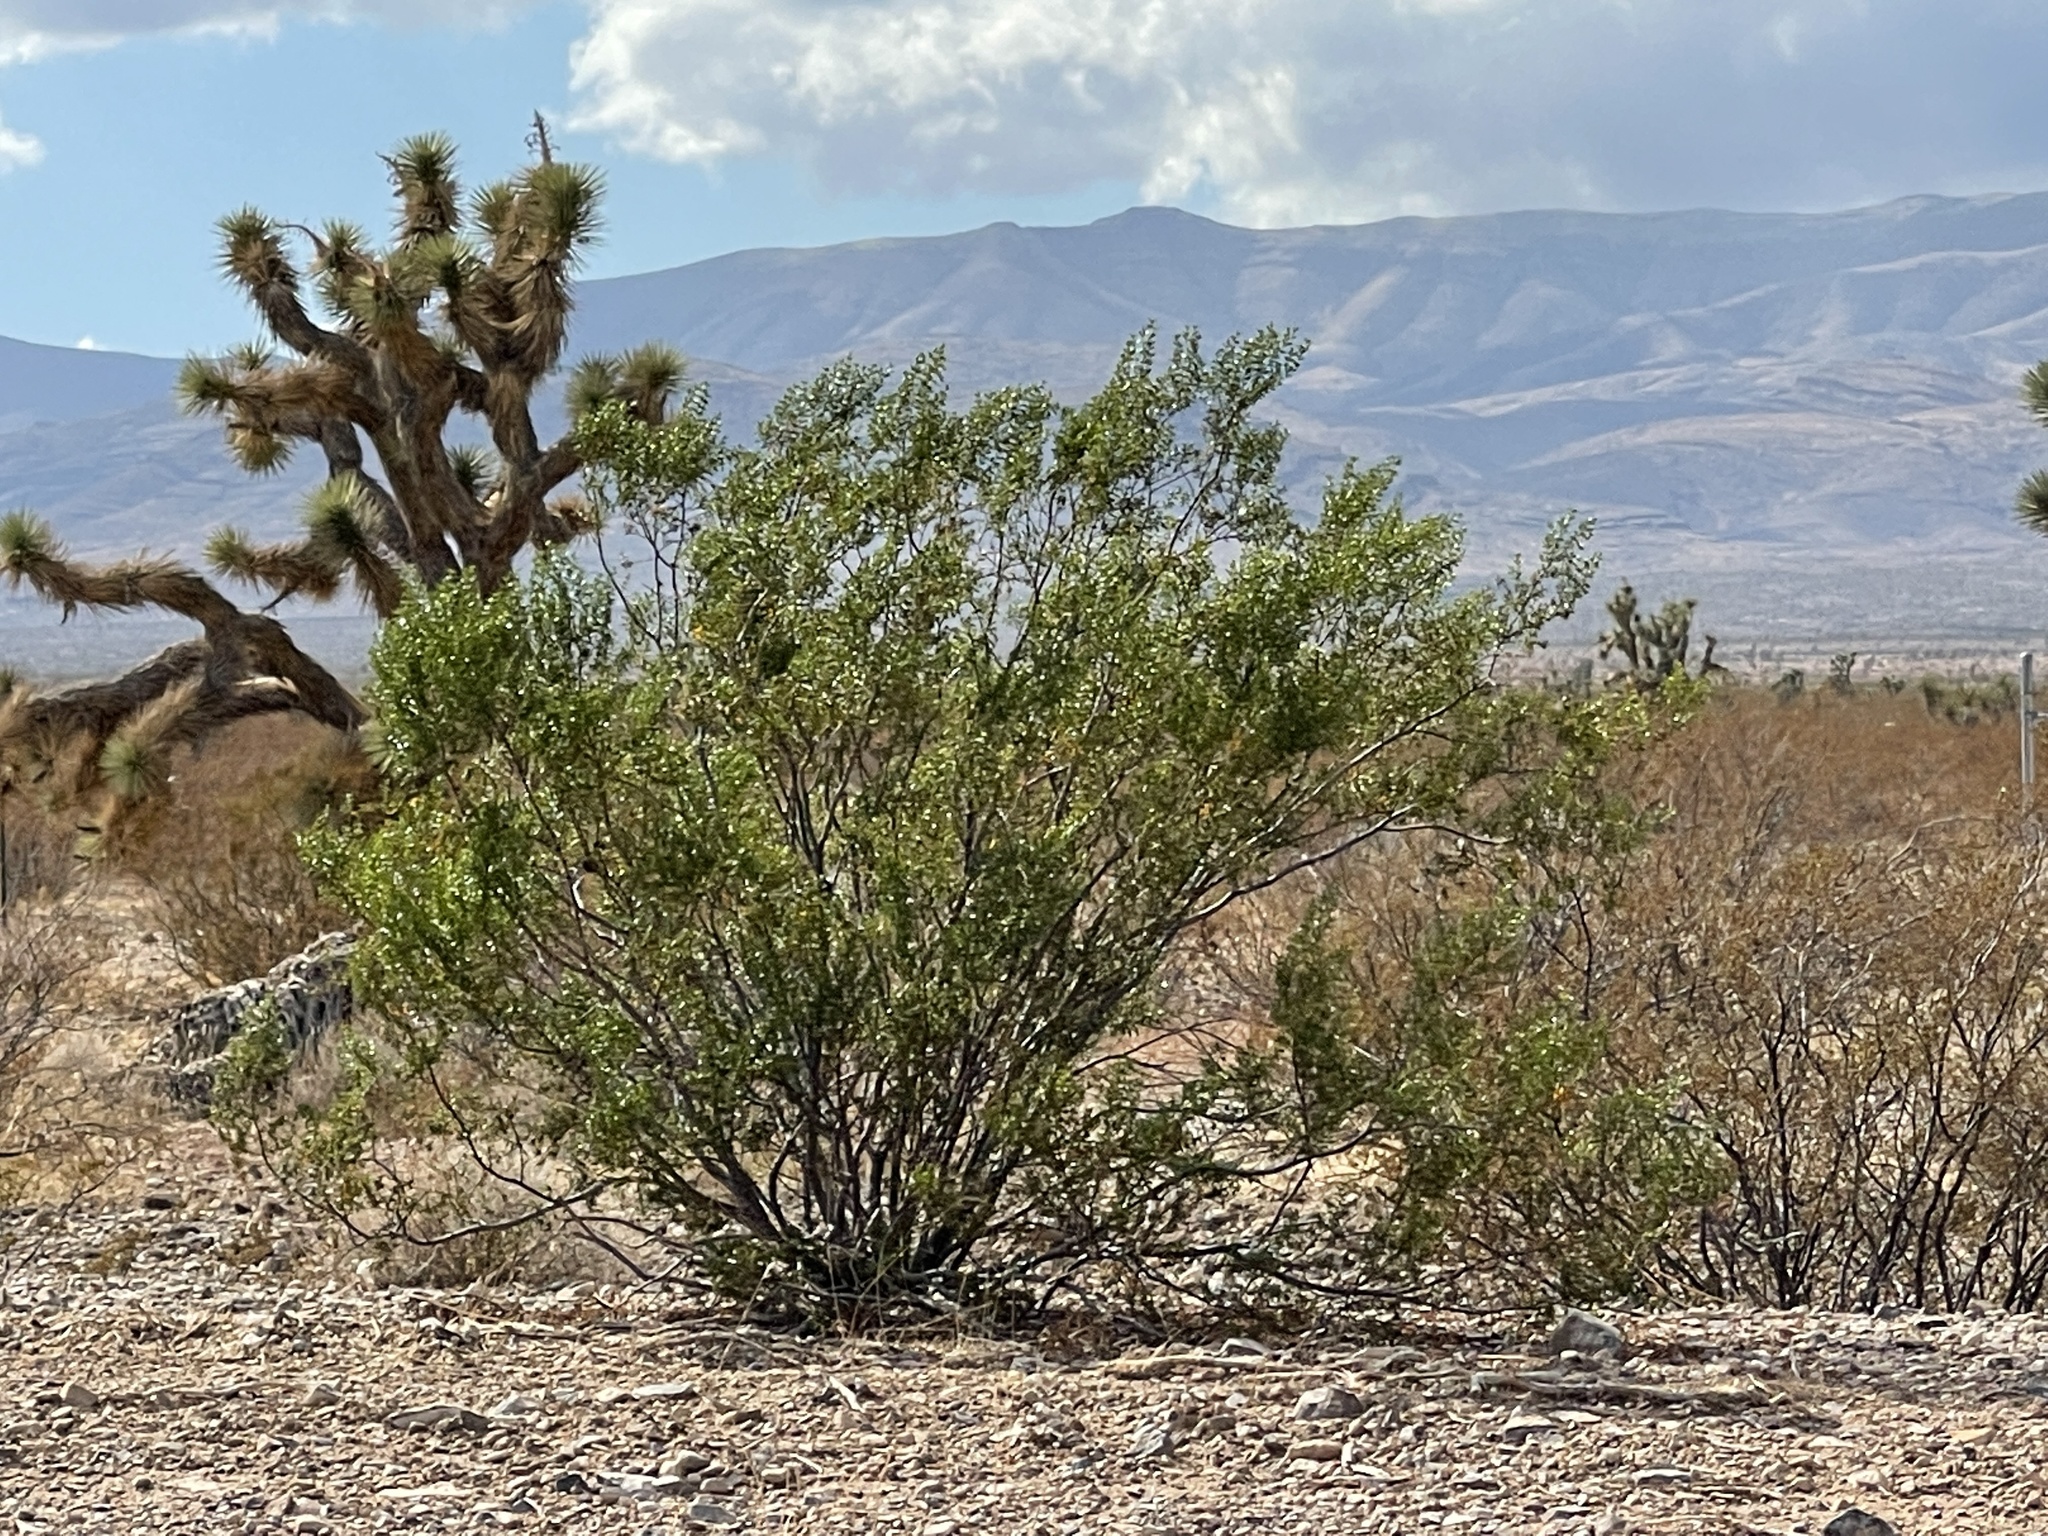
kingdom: Plantae
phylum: Tracheophyta
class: Magnoliopsida
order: Zygophyllales
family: Zygophyllaceae
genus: Larrea
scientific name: Larrea tridentata
